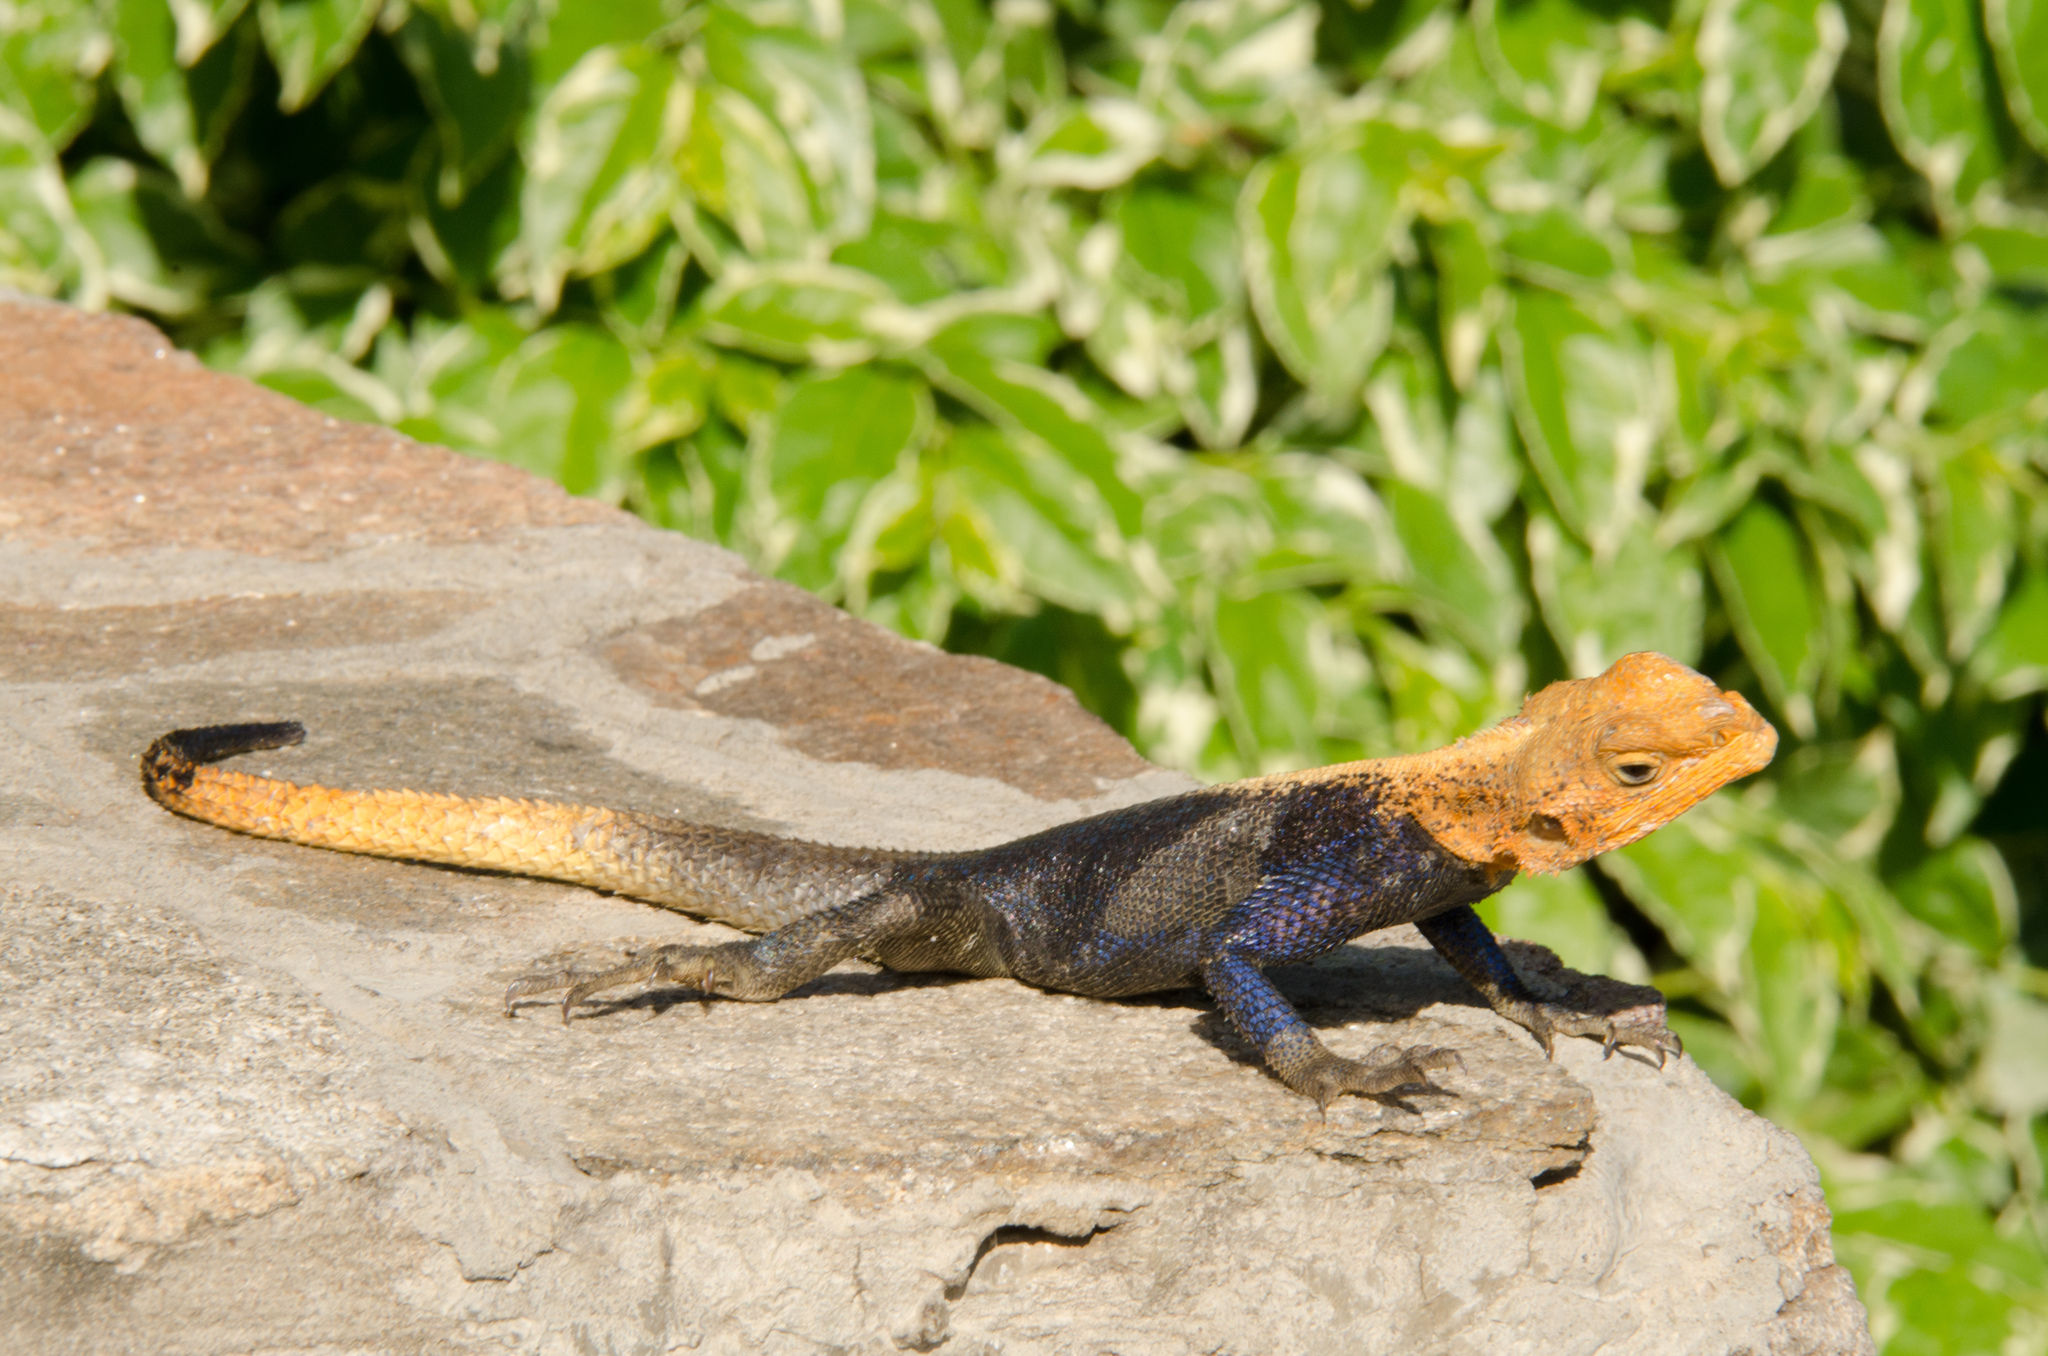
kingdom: Animalia
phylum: Chordata
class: Squamata
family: Agamidae
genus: Agama
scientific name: Agama finchi
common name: Finch’s agama
